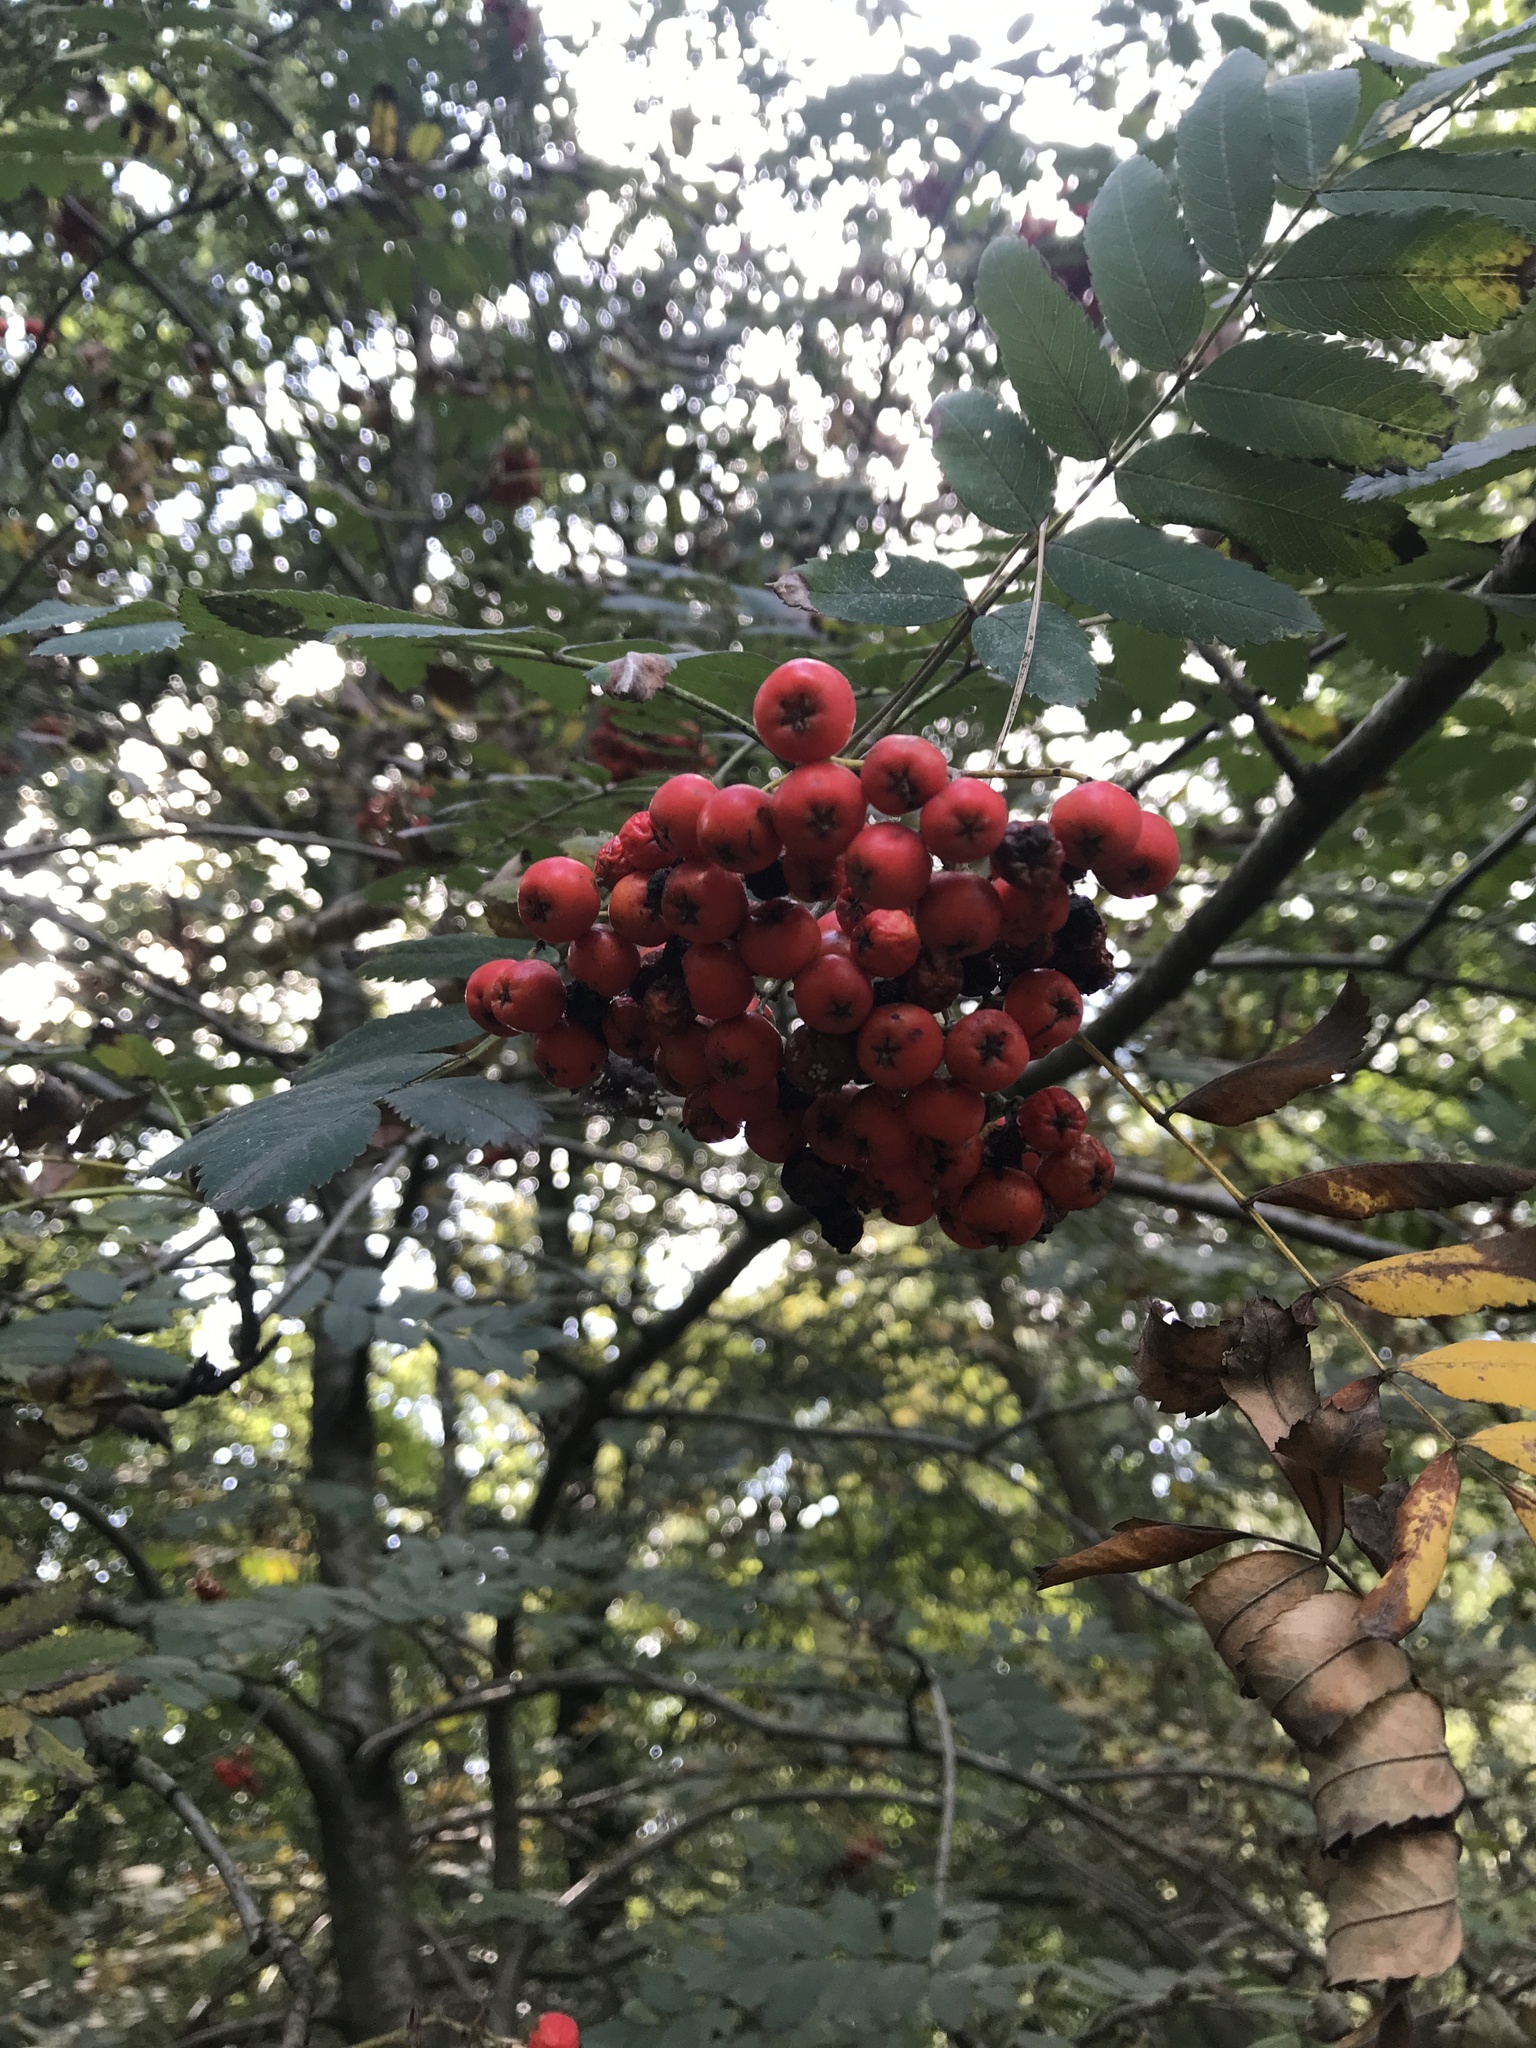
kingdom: Plantae
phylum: Tracheophyta
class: Magnoliopsida
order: Rosales
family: Rosaceae
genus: Sorbus
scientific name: Sorbus aucuparia
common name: Rowan
